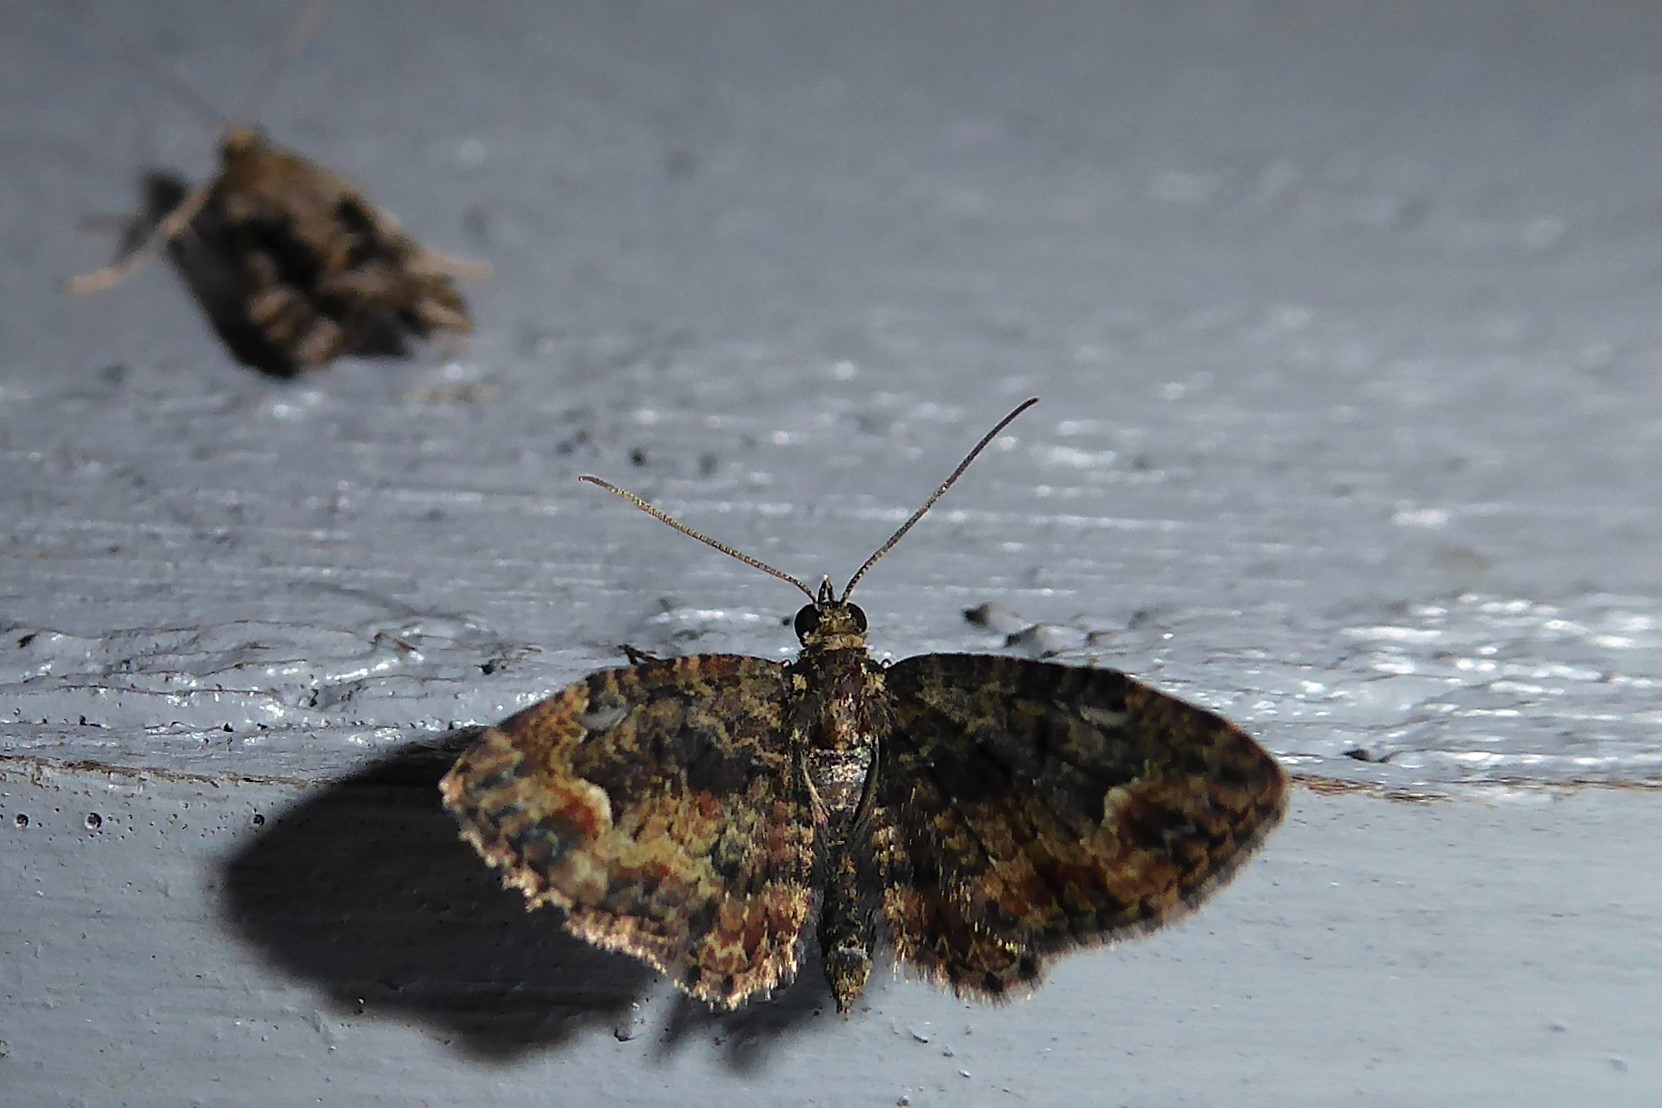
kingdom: Animalia
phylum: Arthropoda
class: Insecta
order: Lepidoptera
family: Geometridae
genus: Pasiphilodes
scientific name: Pasiphilodes testulata
